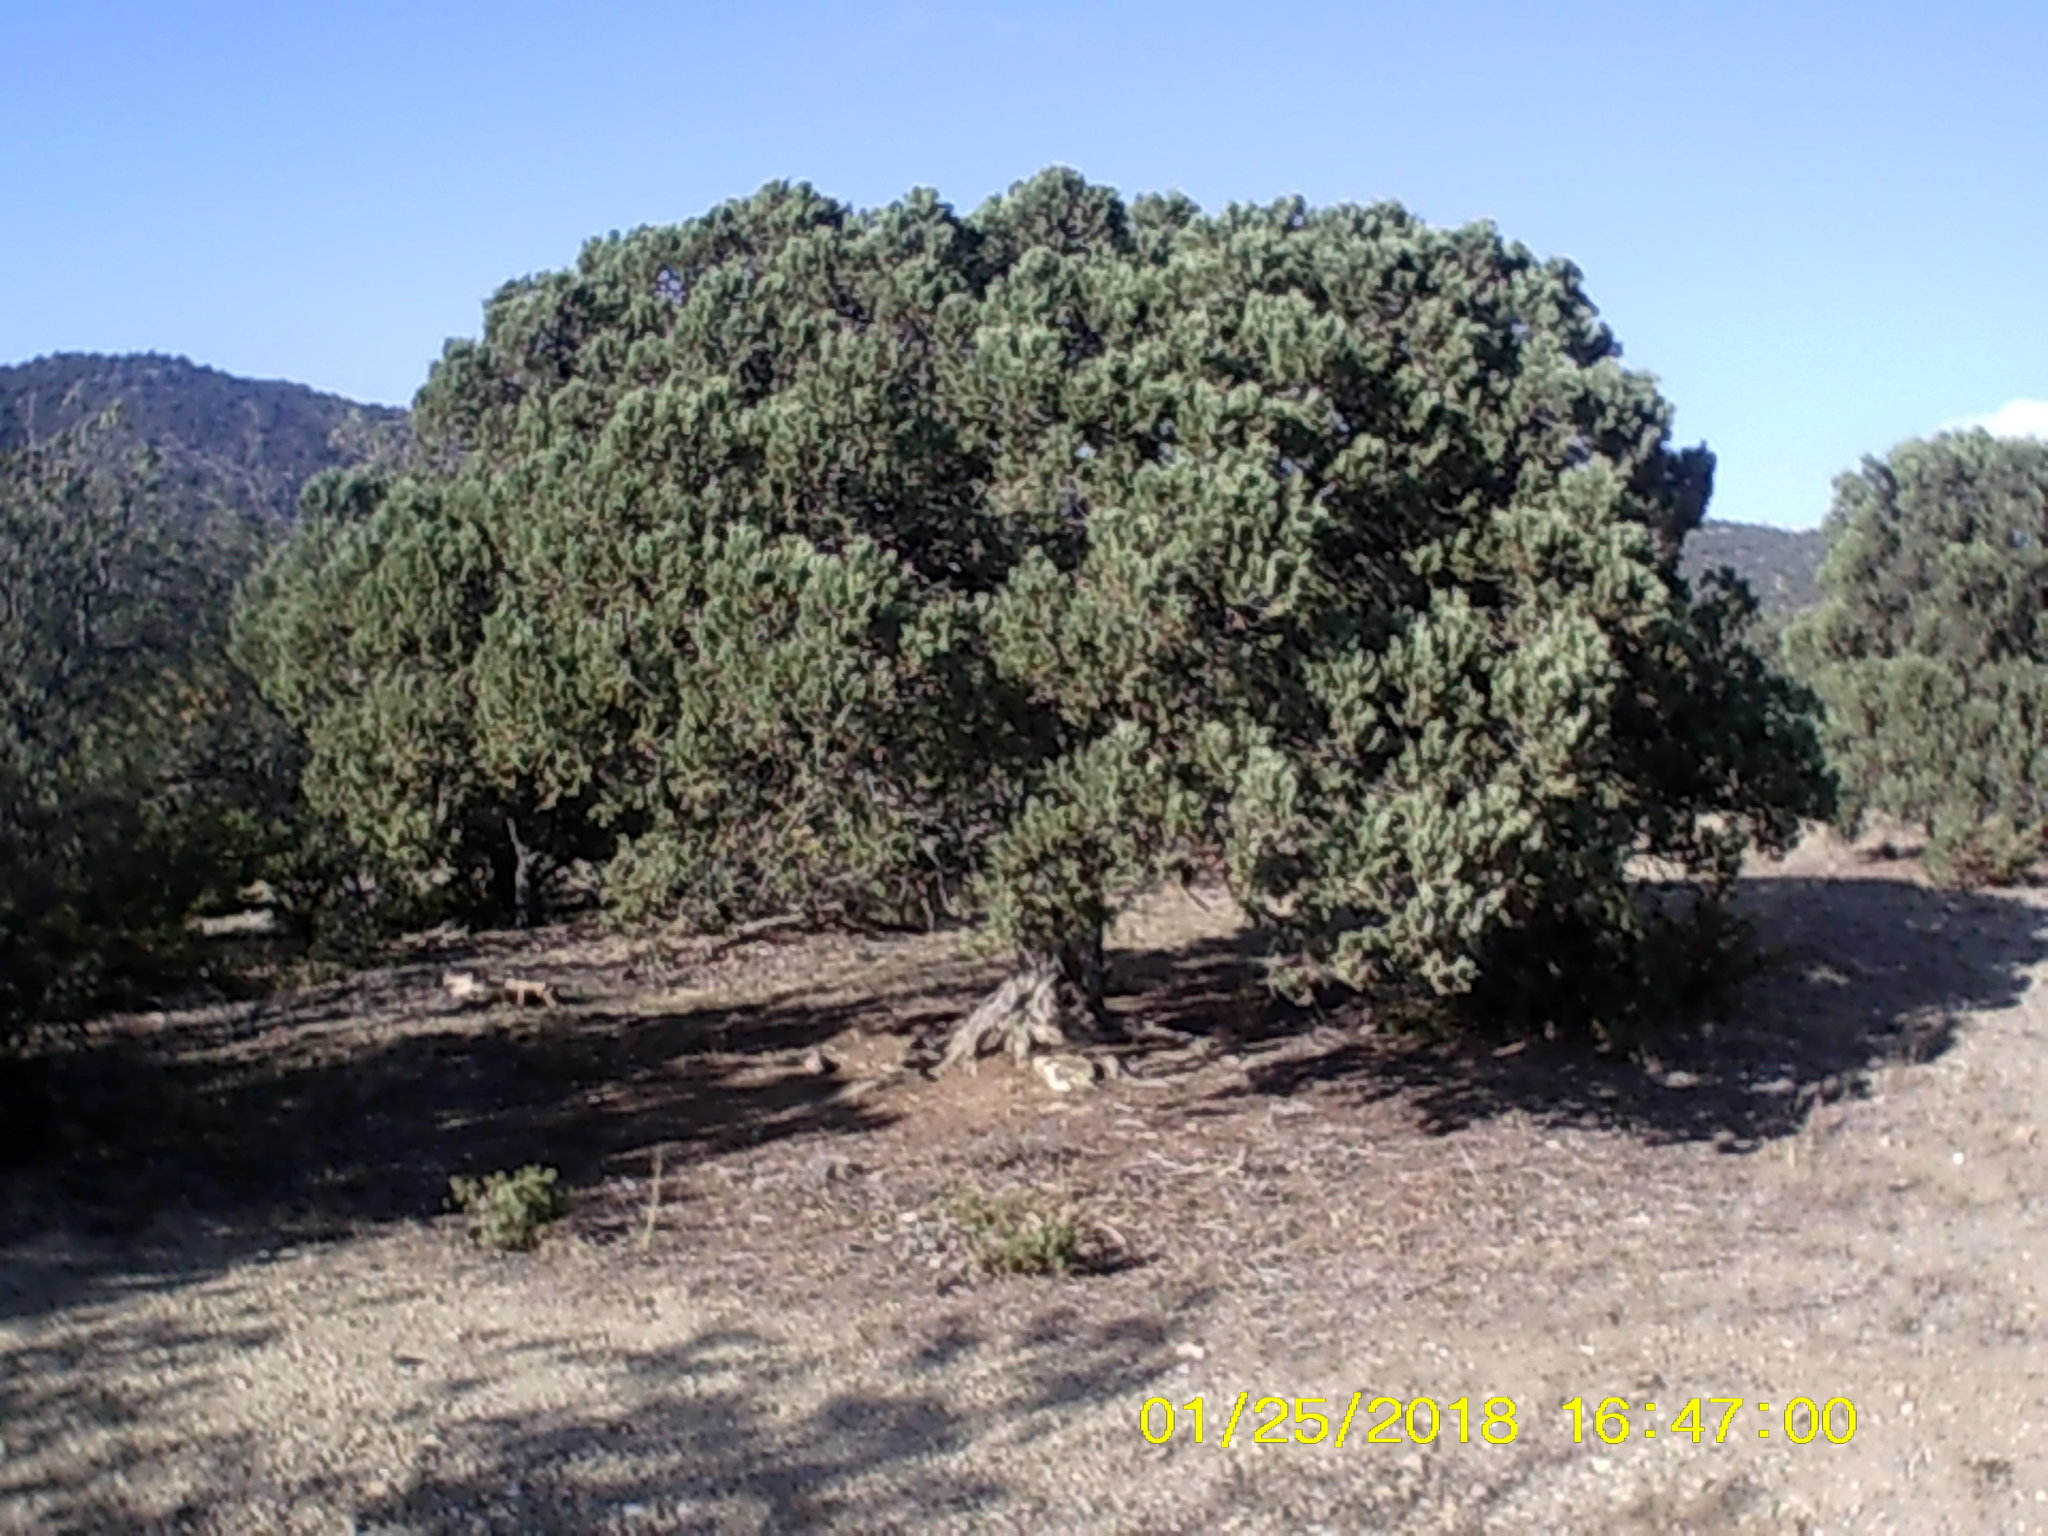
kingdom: Plantae
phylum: Tracheophyta
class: Pinopsida
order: Pinales
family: Cupressaceae
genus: Juniperus
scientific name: Juniperus excelsa
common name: Crimean juniper
